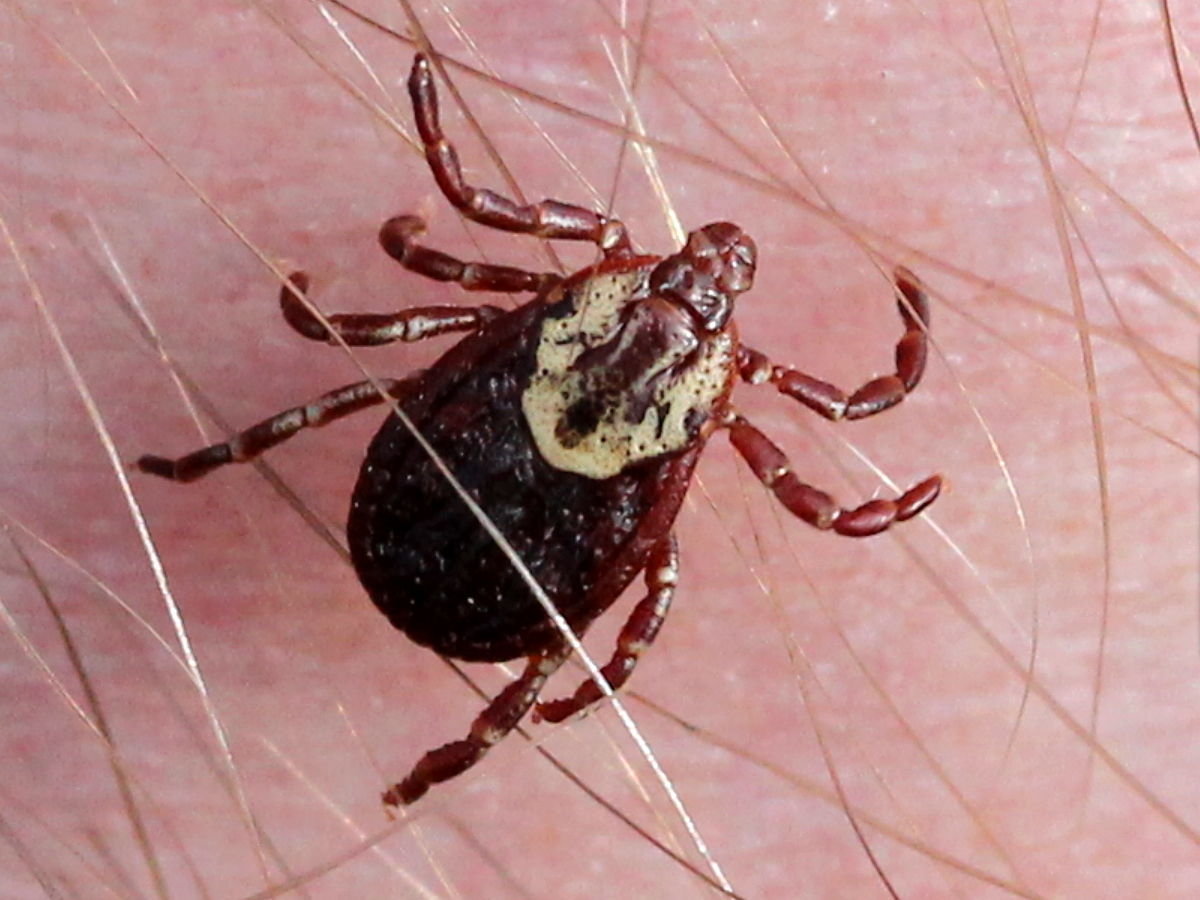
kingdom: Animalia
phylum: Arthropoda
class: Arachnida
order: Ixodida
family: Ixodidae
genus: Dermacentor
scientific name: Dermacentor variabilis
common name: American dog tick
